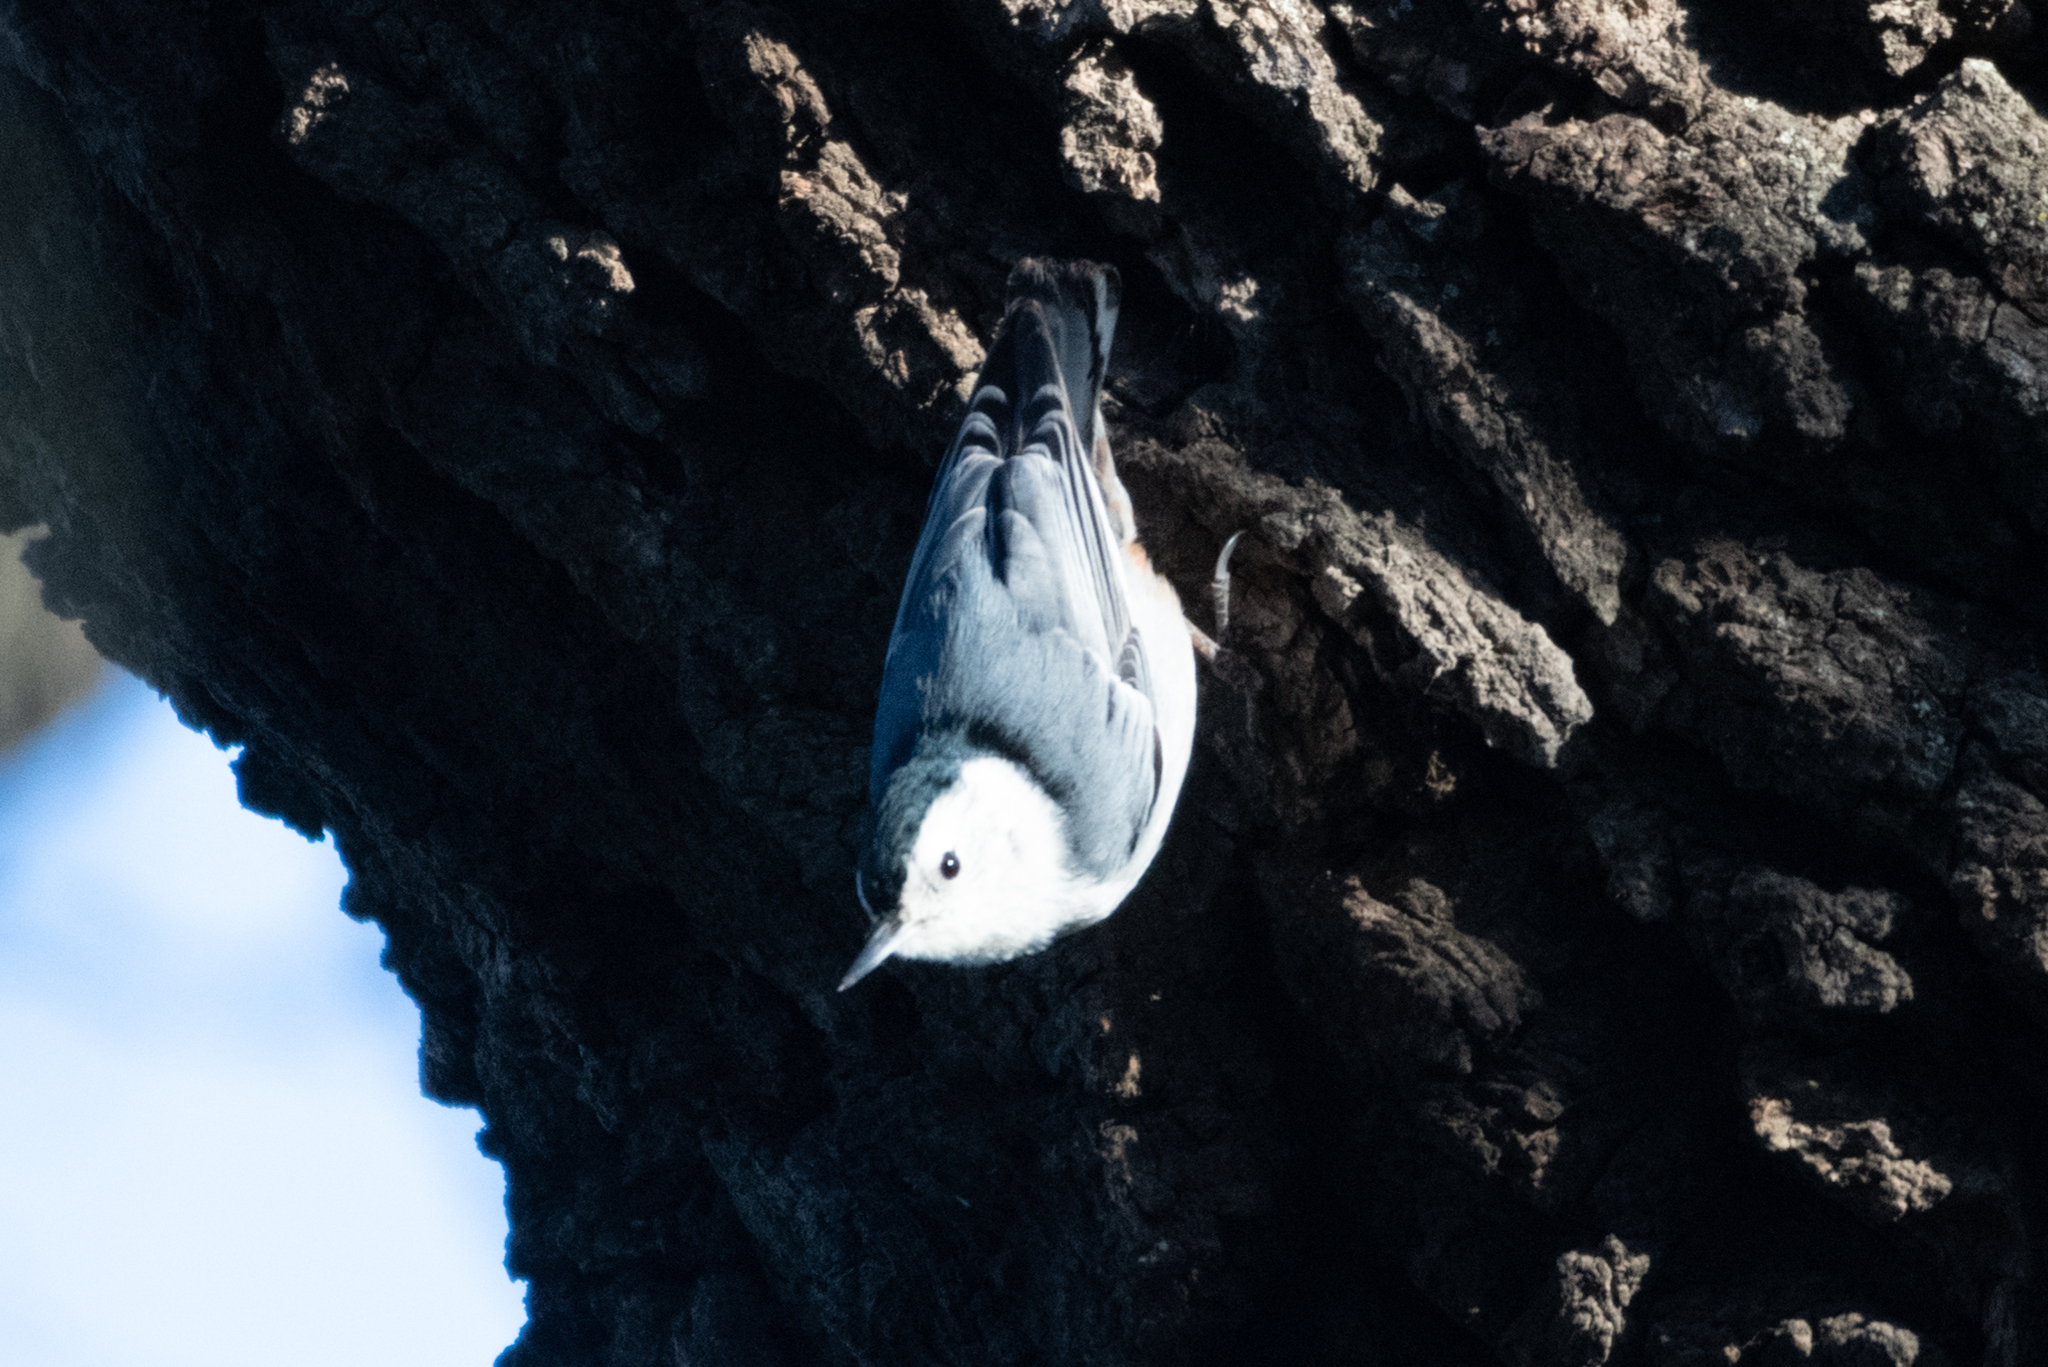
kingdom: Animalia
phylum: Chordata
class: Aves
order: Passeriformes
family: Sittidae
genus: Sitta
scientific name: Sitta carolinensis
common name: White-breasted nuthatch
